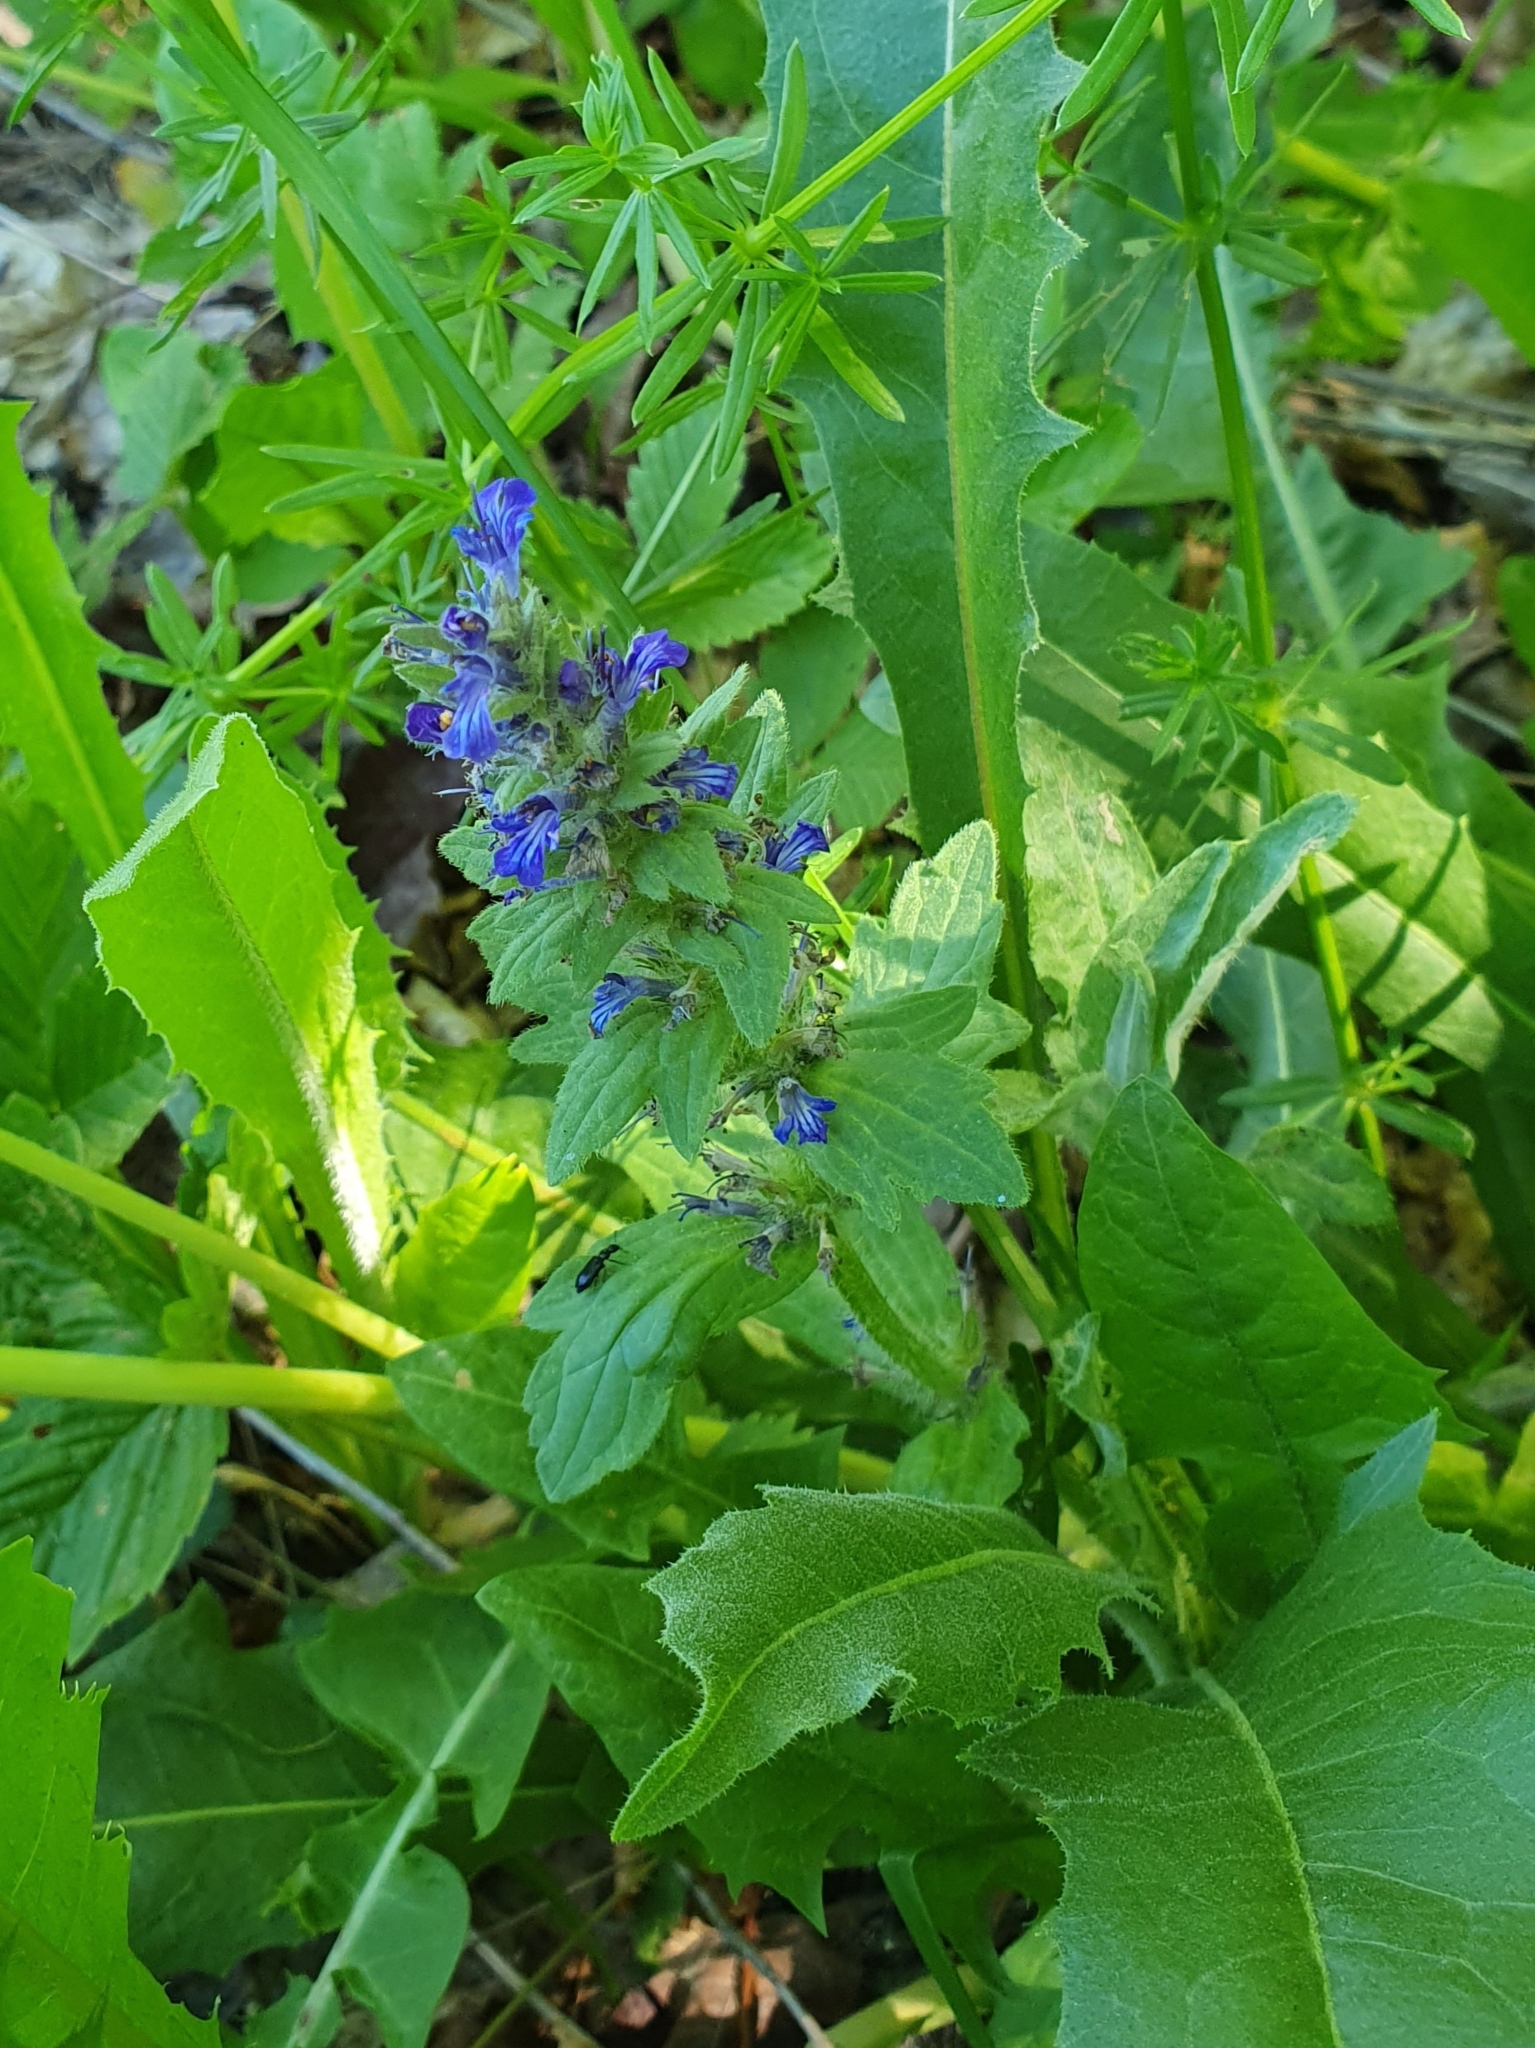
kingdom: Plantae
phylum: Tracheophyta
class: Magnoliopsida
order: Lamiales
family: Lamiaceae
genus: Ajuga
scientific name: Ajuga genevensis
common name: Blue bugle
